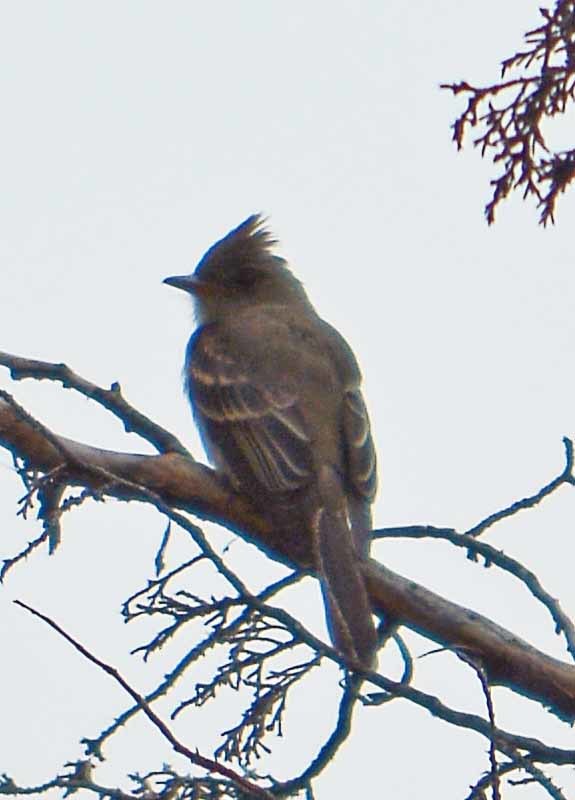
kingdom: Animalia
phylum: Chordata
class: Aves
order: Passeriformes
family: Tyrannidae
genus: Contopus
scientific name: Contopus pertinax
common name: Greater pewee
